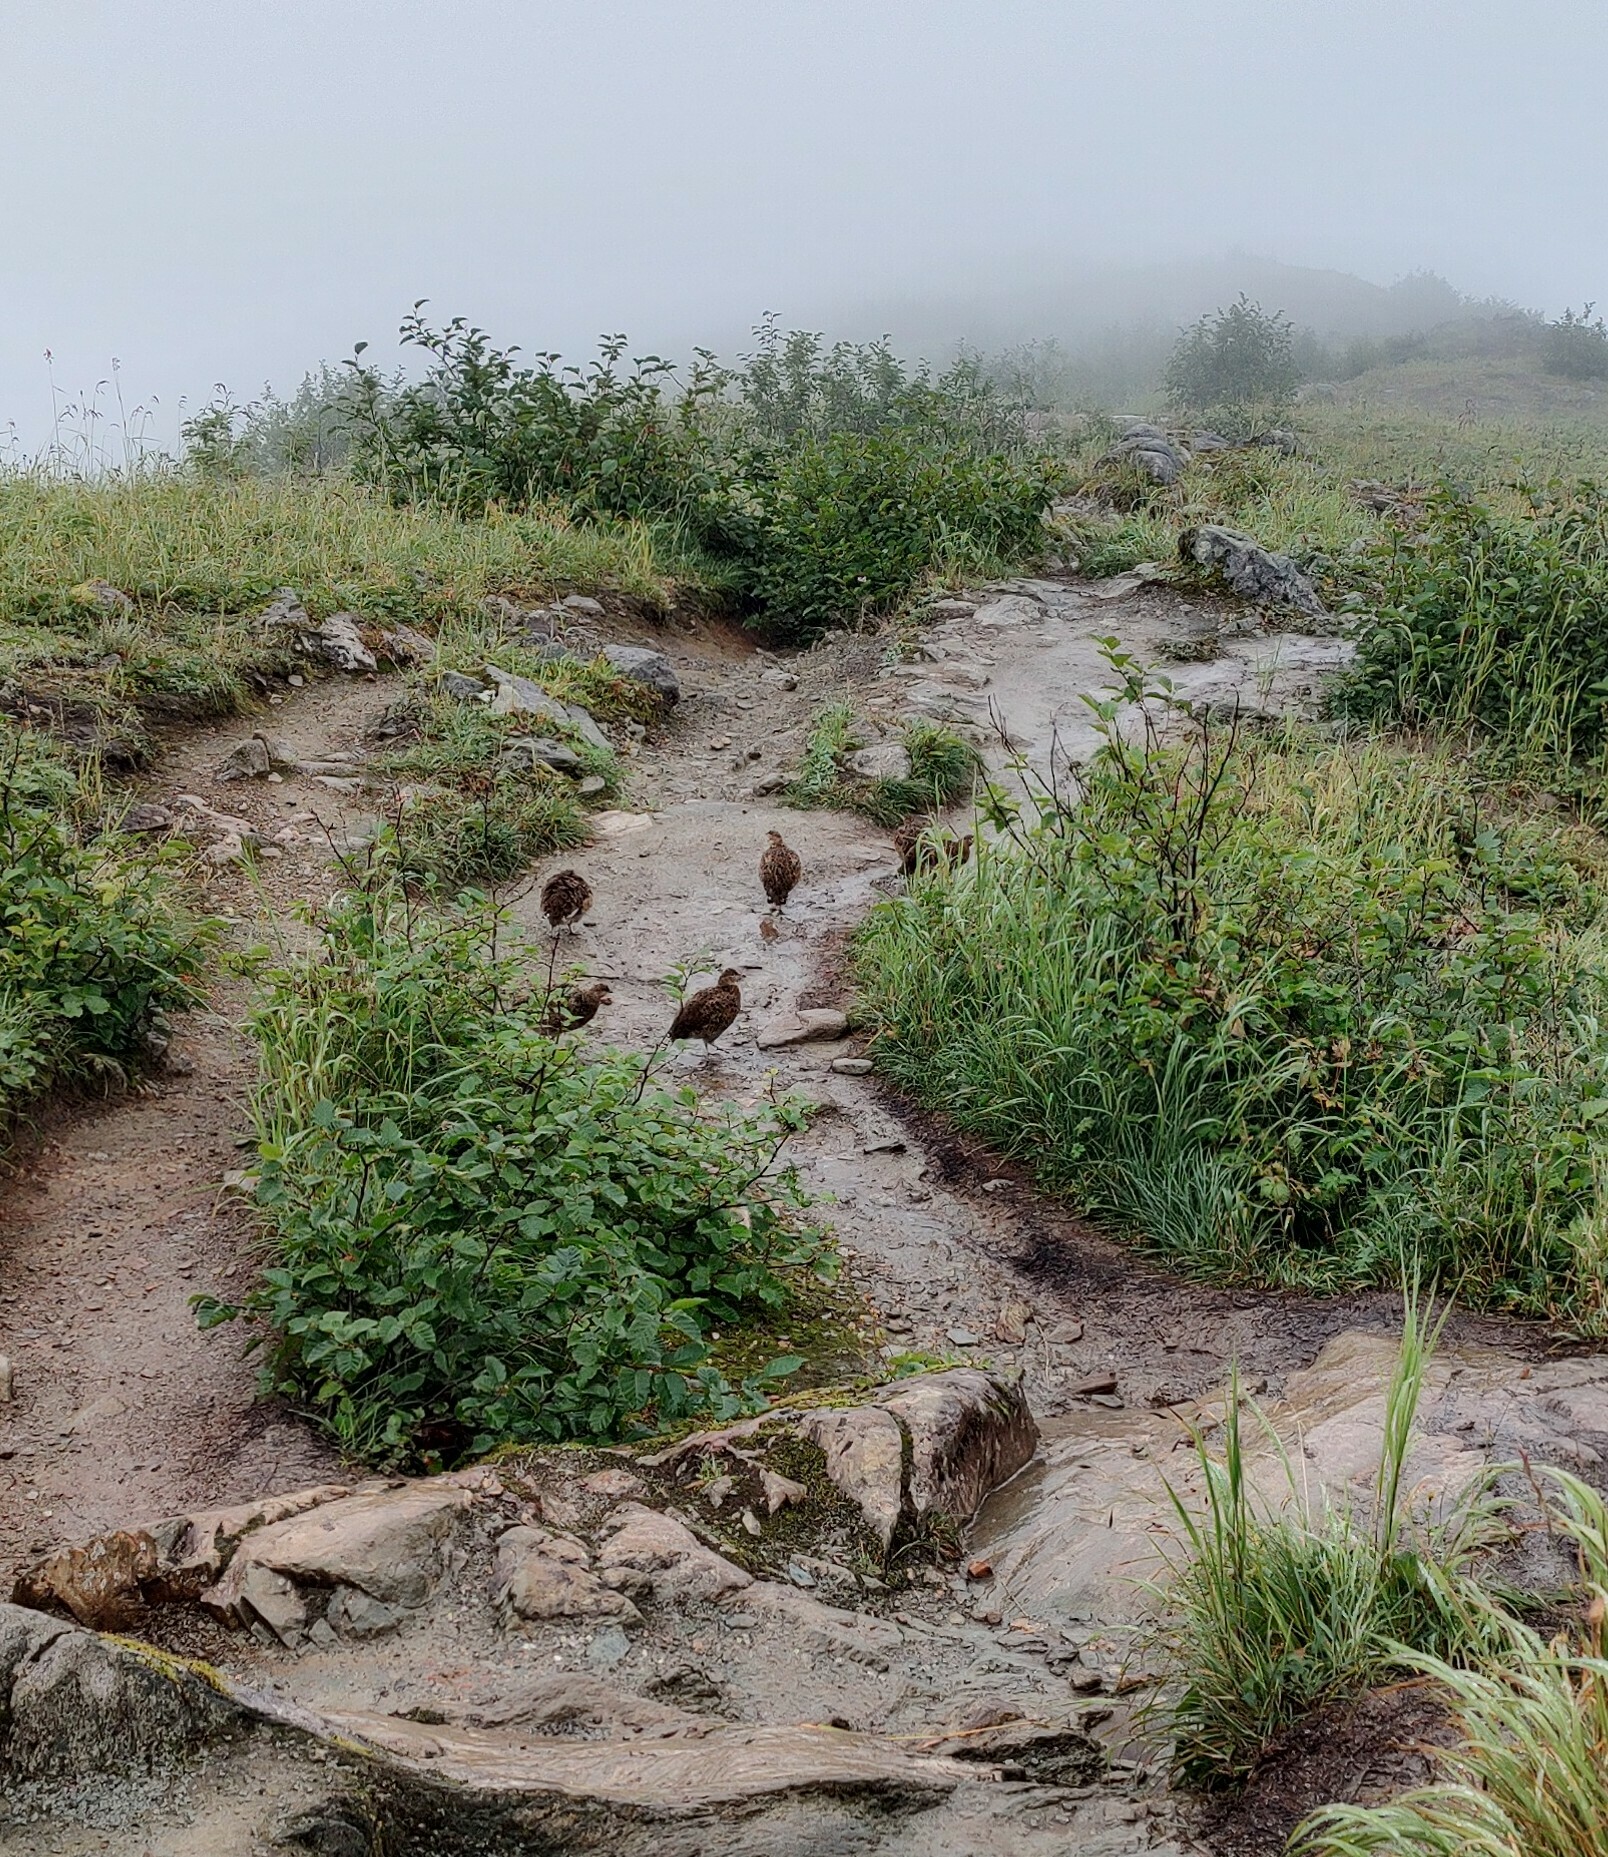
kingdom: Animalia
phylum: Chordata
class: Aves
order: Galliformes
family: Phasianidae
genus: Lagopus
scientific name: Lagopus muta
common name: Rock ptarmigan
